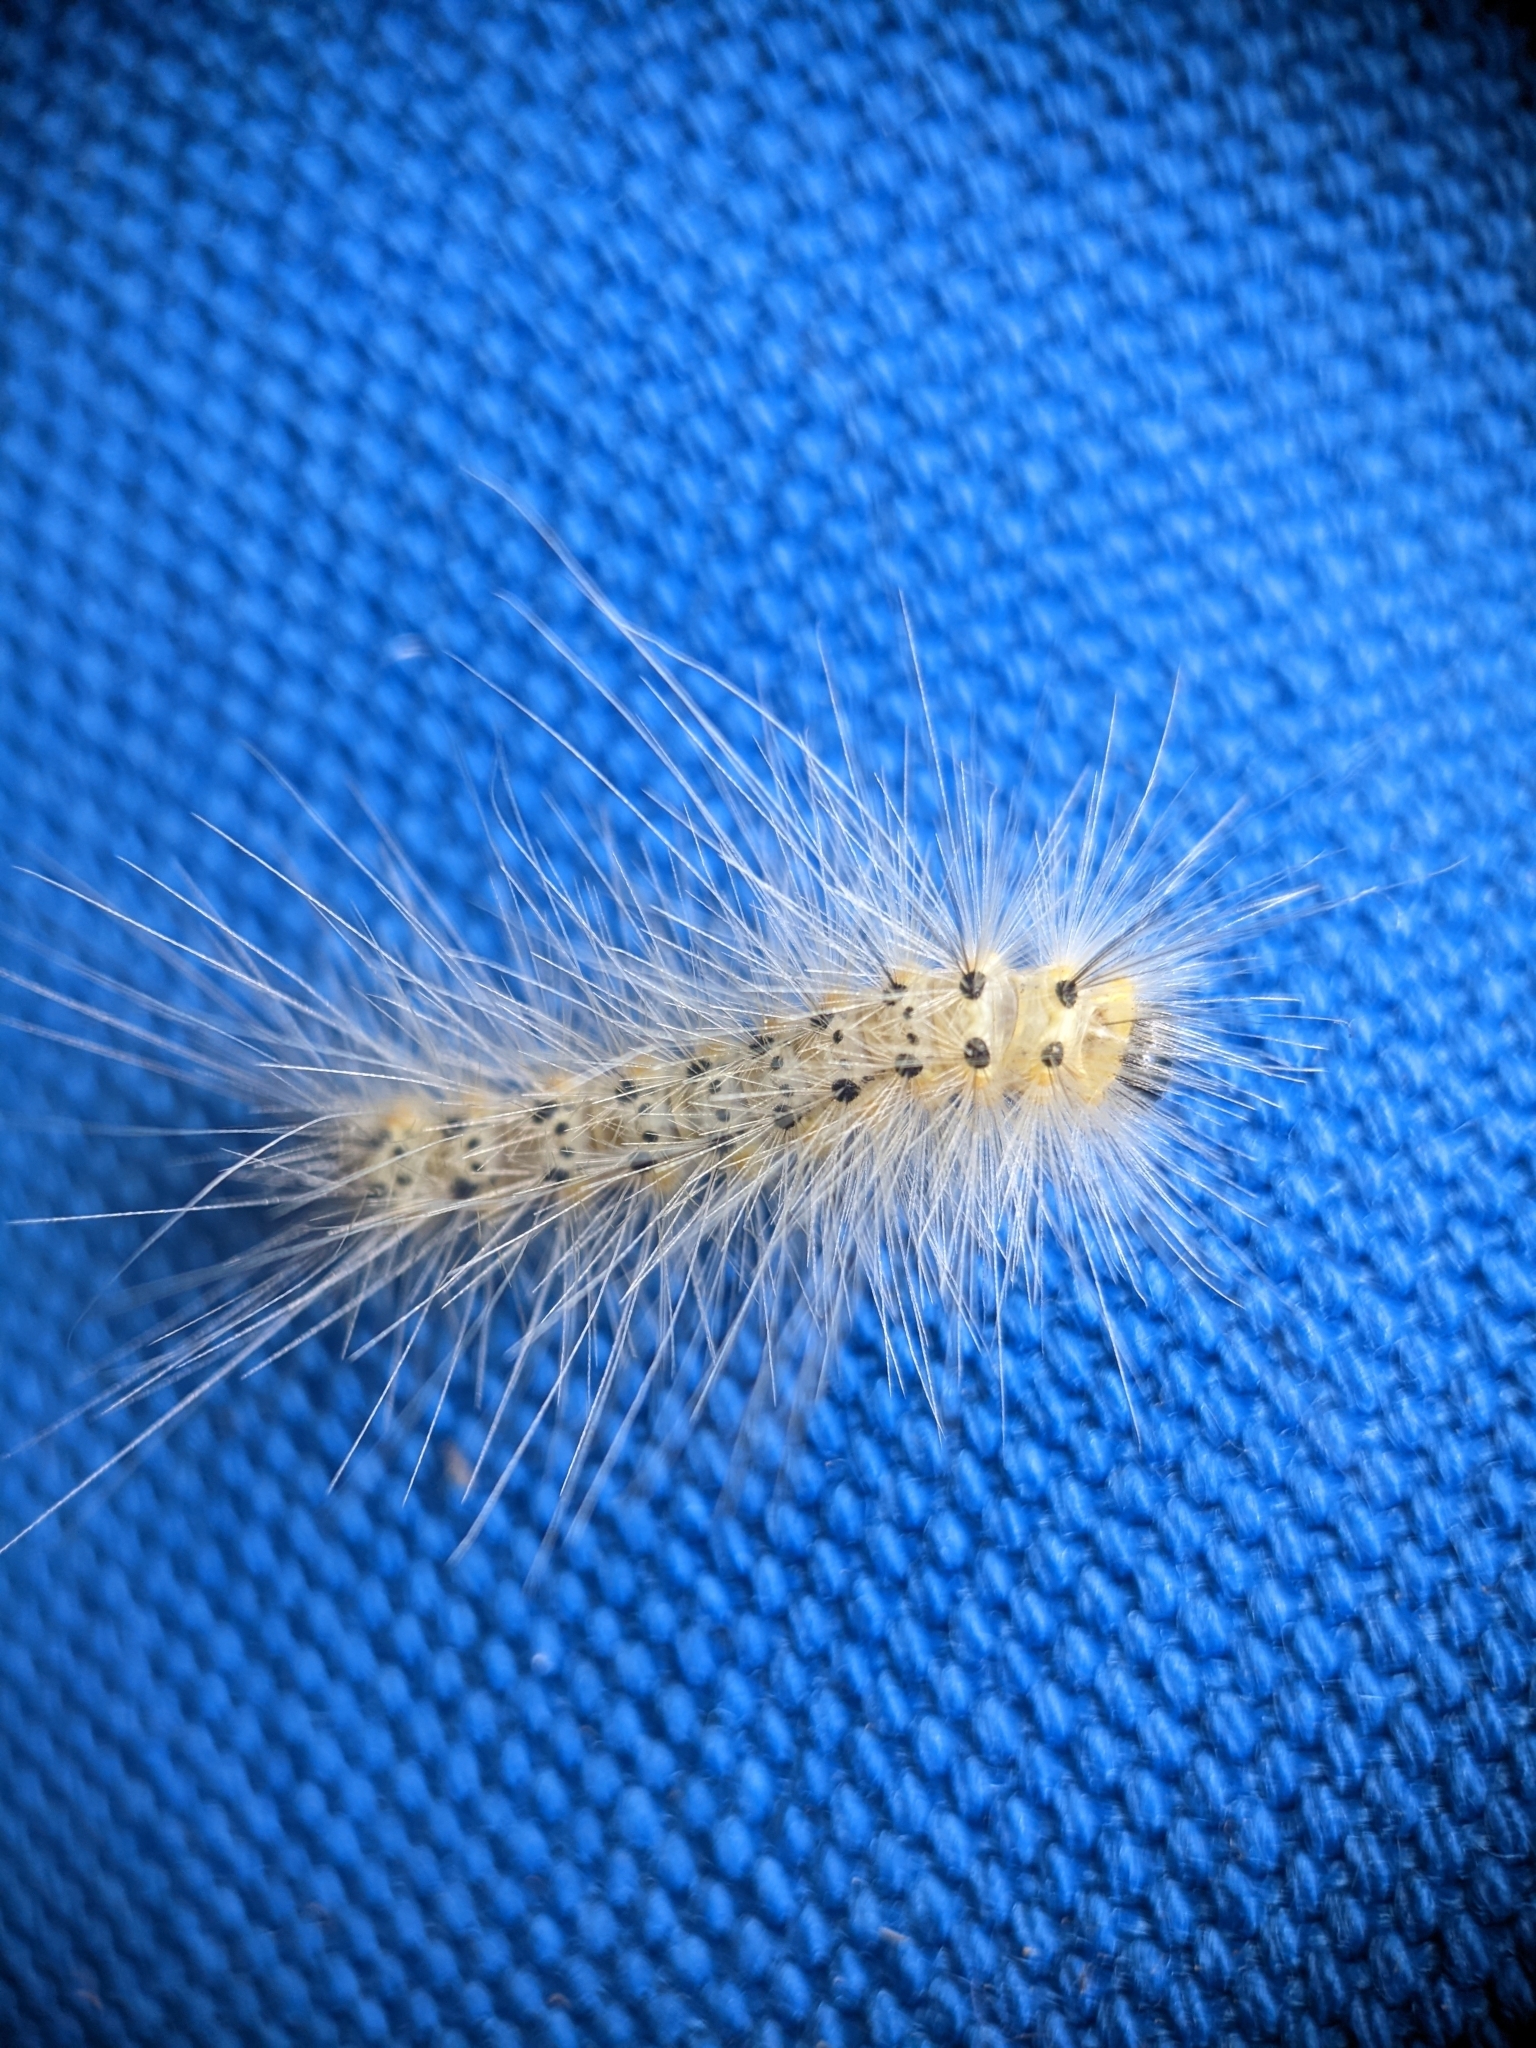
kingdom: Animalia
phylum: Arthropoda
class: Insecta
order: Lepidoptera
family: Erebidae
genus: Hyphantria
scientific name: Hyphantria cunea
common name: American white moth
